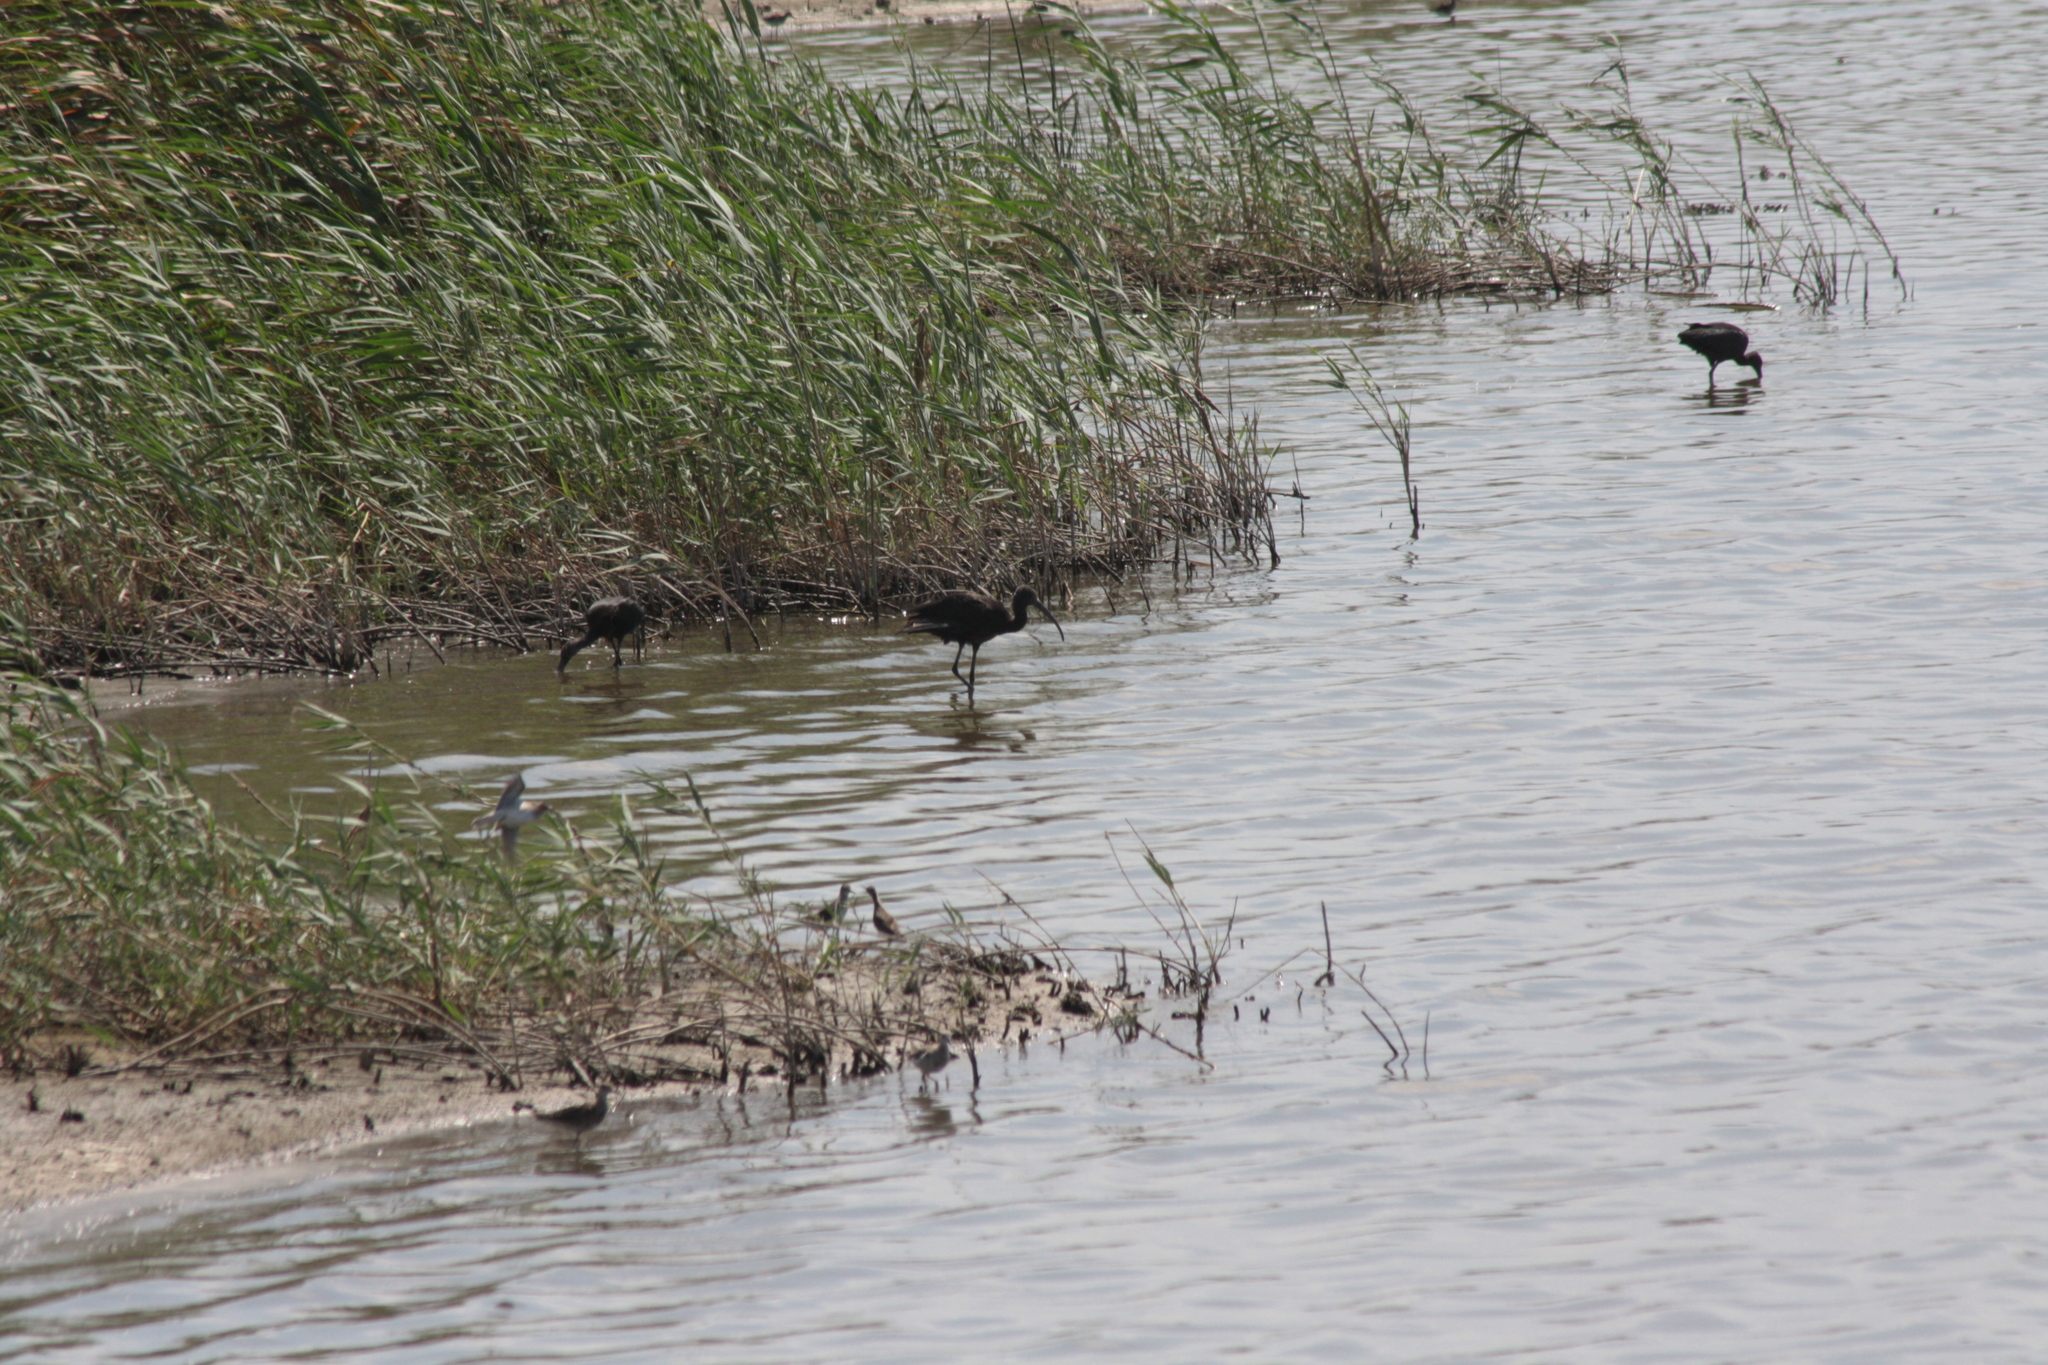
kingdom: Animalia
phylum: Chordata
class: Aves
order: Pelecaniformes
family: Threskiornithidae
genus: Plegadis
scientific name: Plegadis falcinellus
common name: Glossy ibis
